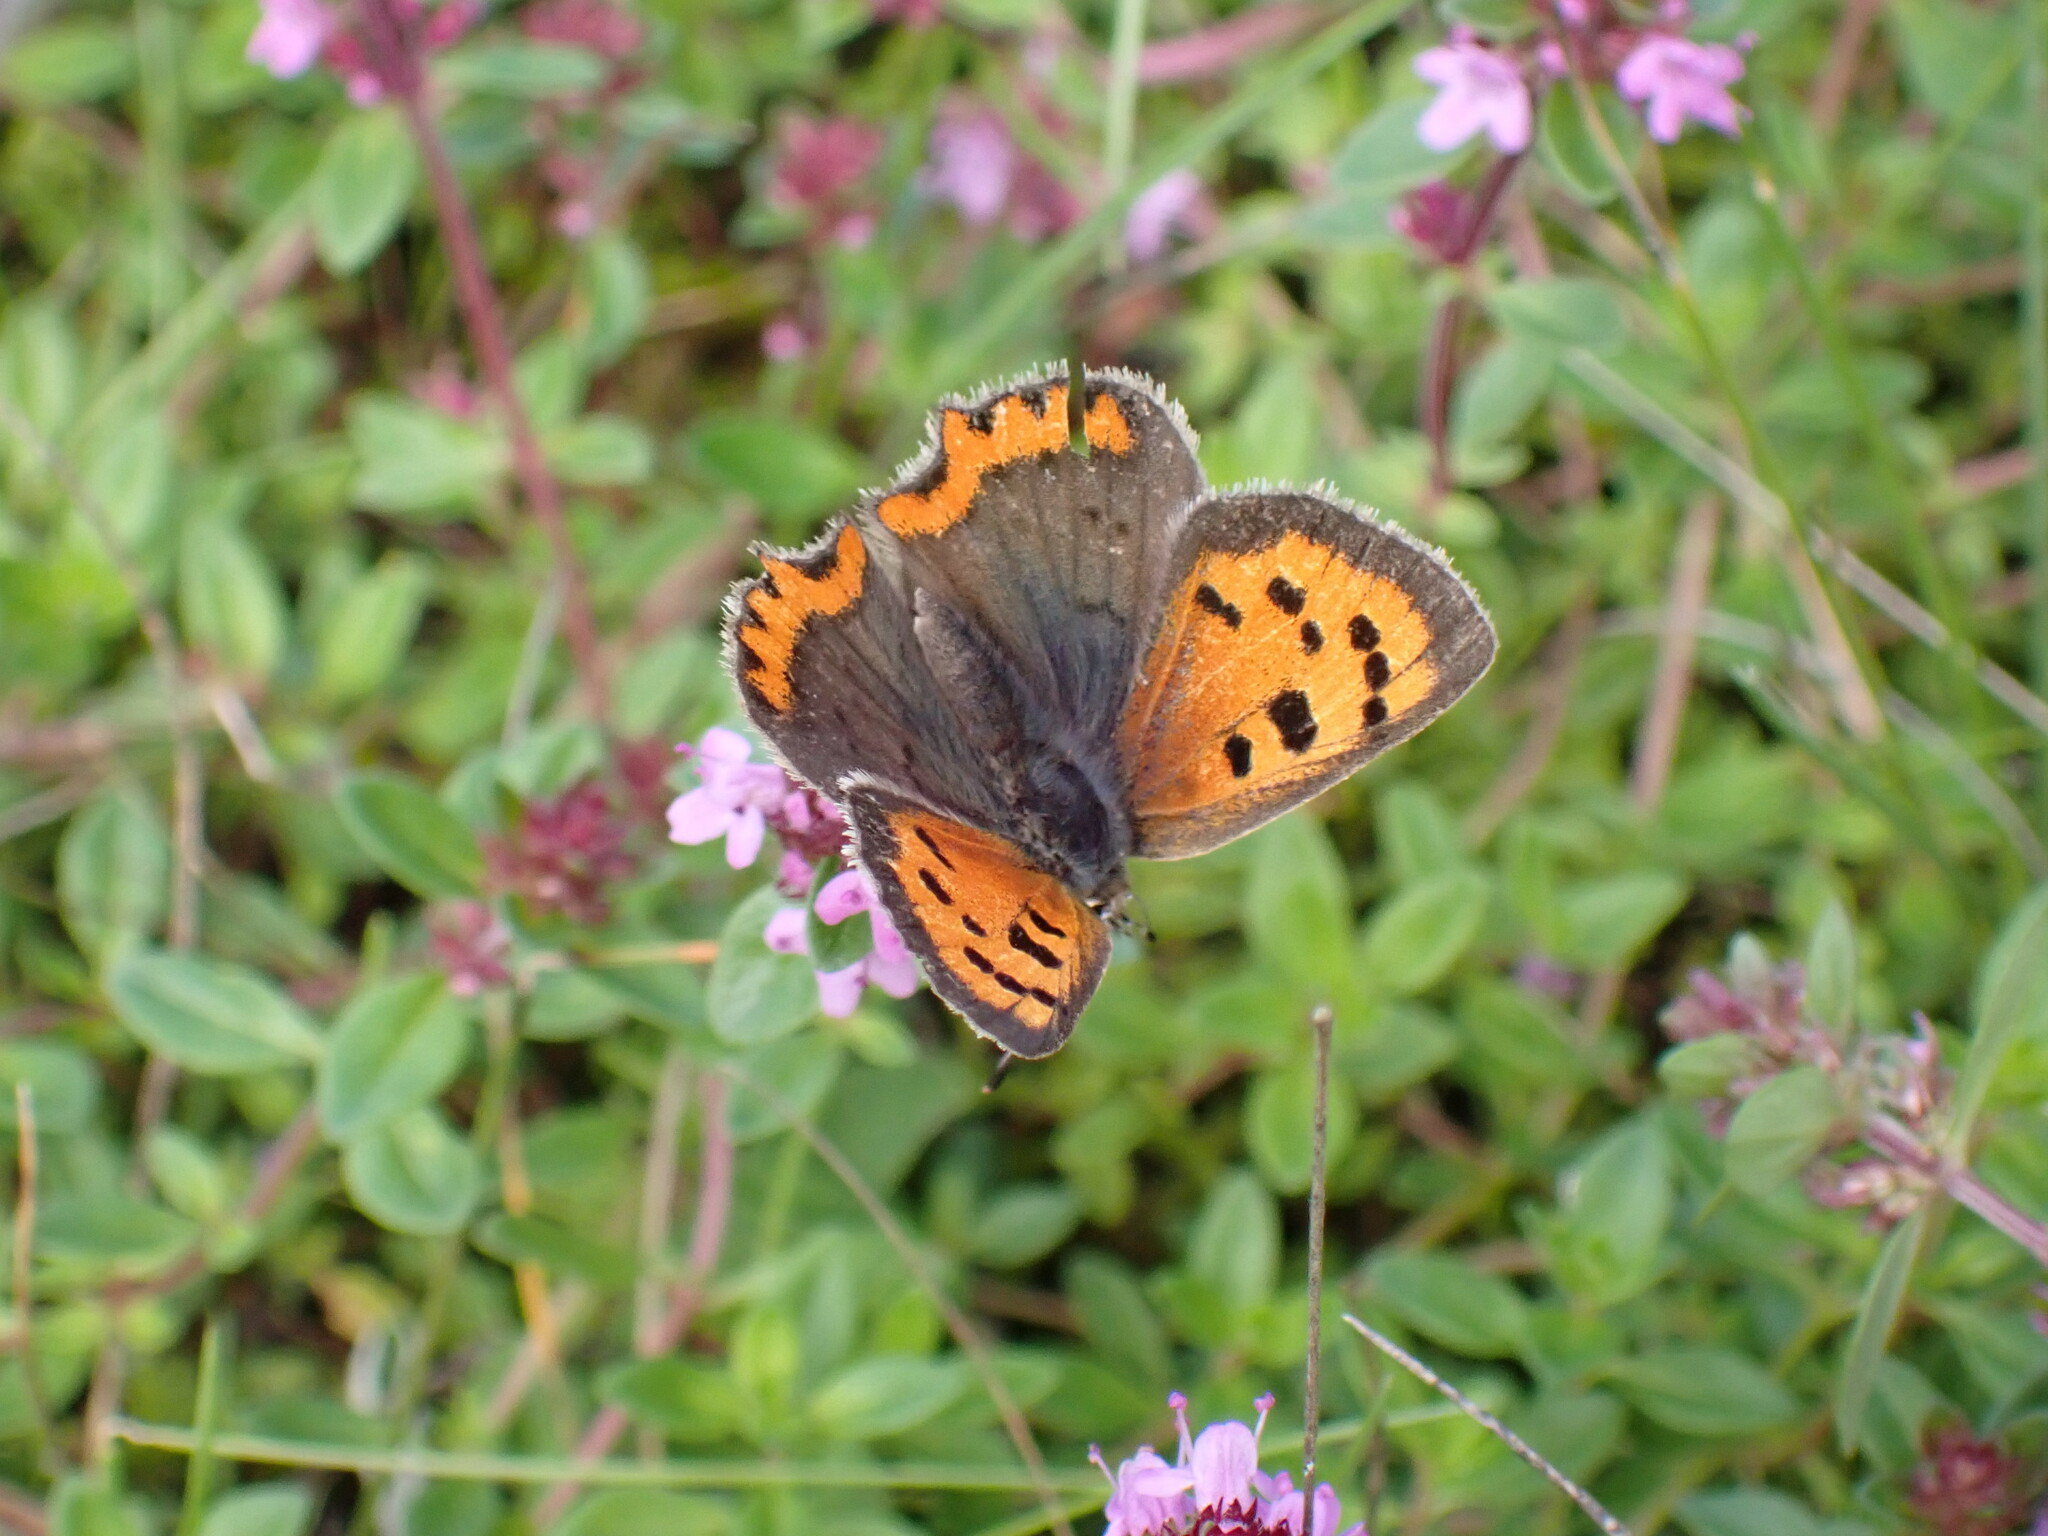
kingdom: Animalia
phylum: Arthropoda
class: Insecta
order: Lepidoptera
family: Lycaenidae
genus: Lycaena
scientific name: Lycaena phlaeas
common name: Small copper
